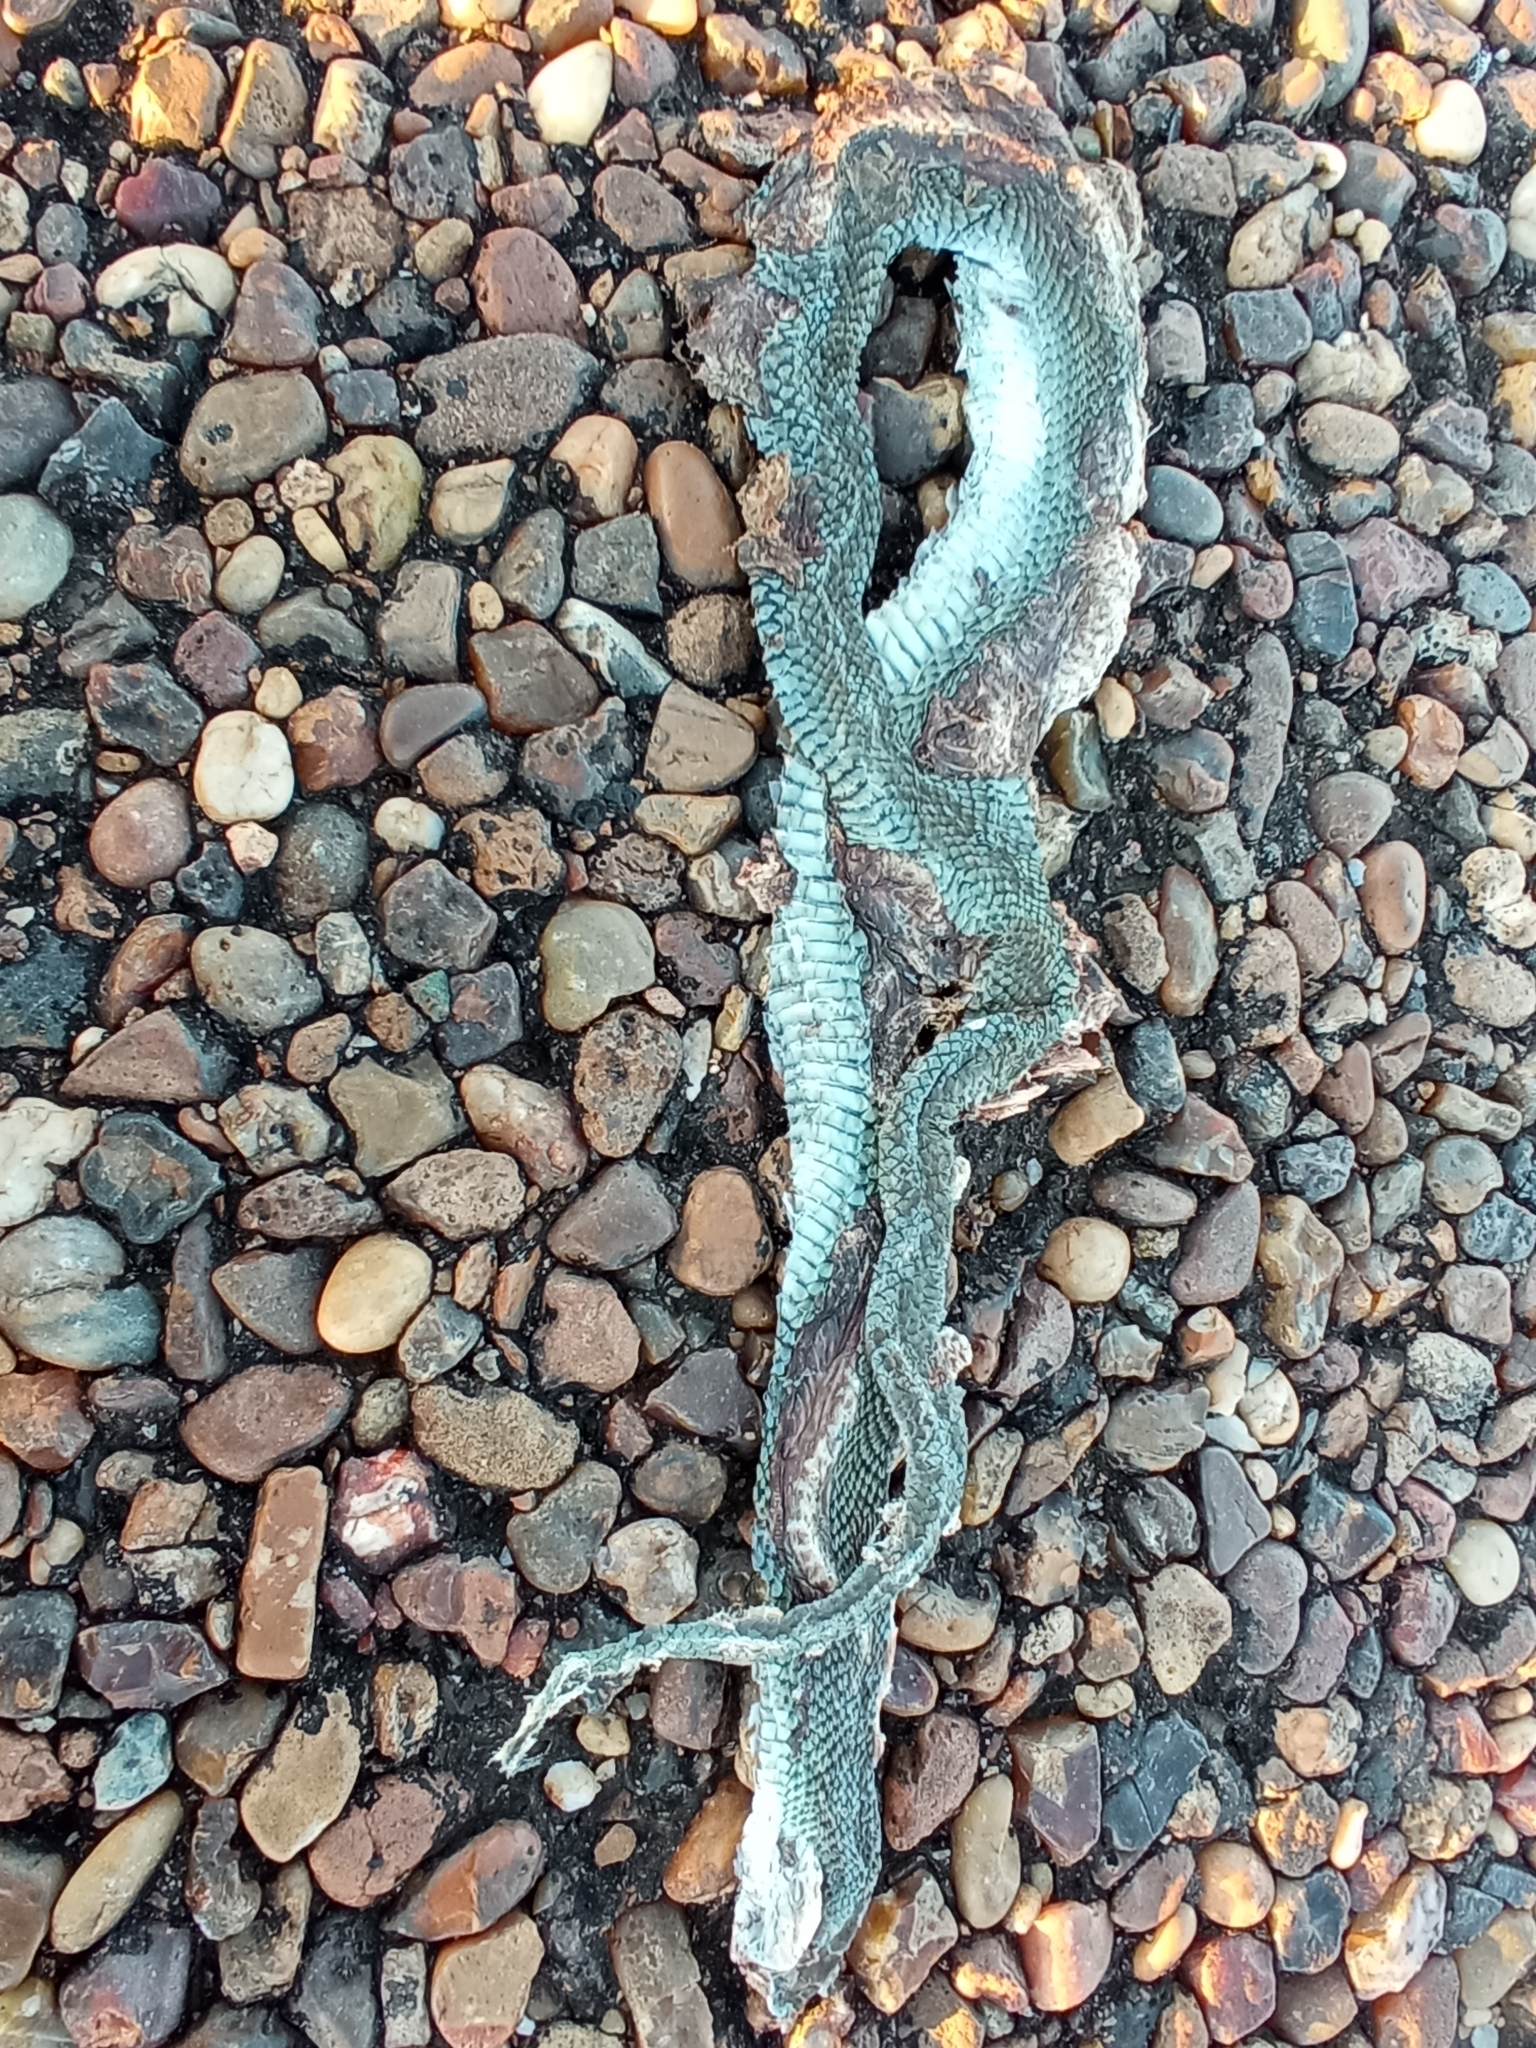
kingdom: Animalia
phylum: Chordata
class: Squamata
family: Colubridae
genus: Philodryas
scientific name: Philodryas patagoniensis
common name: Patagonia green racer
